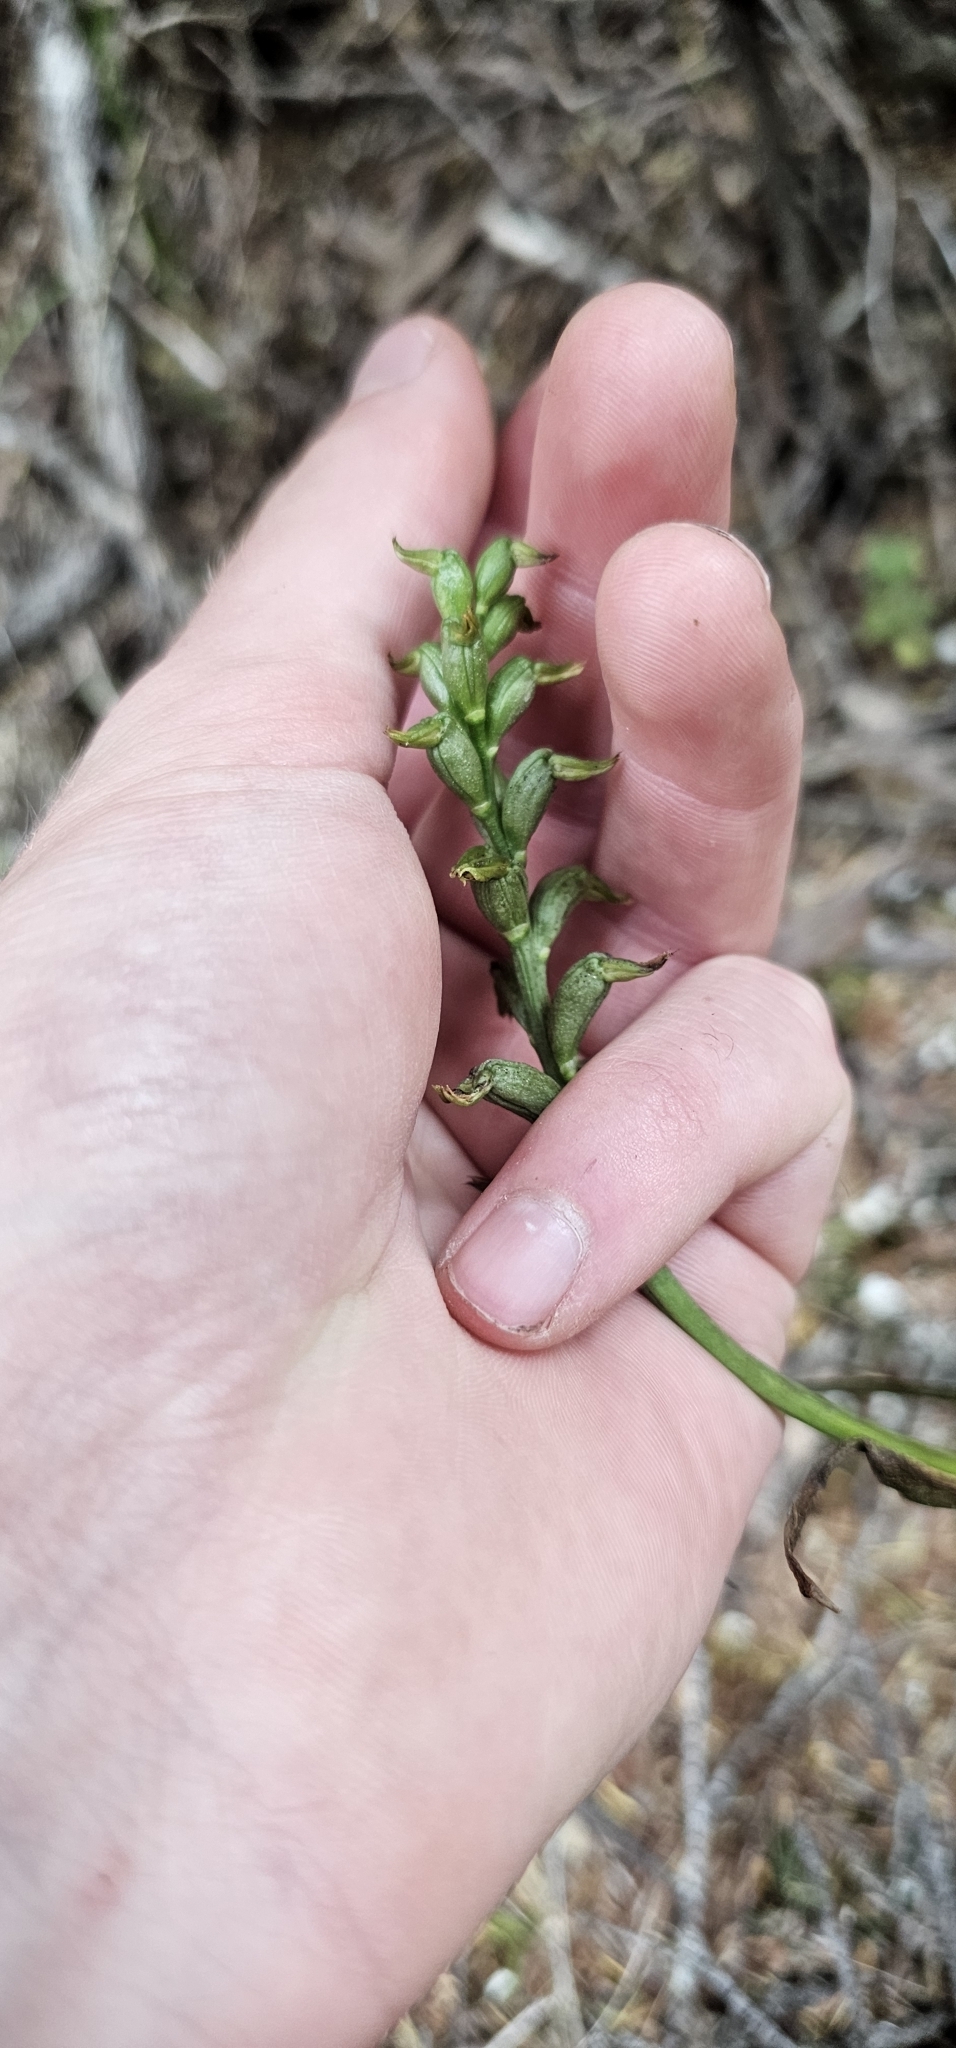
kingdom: Plantae
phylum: Tracheophyta
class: Liliopsida
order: Asparagales
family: Orchidaceae
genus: Prasophyllum
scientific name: Prasophyllum colensoi
